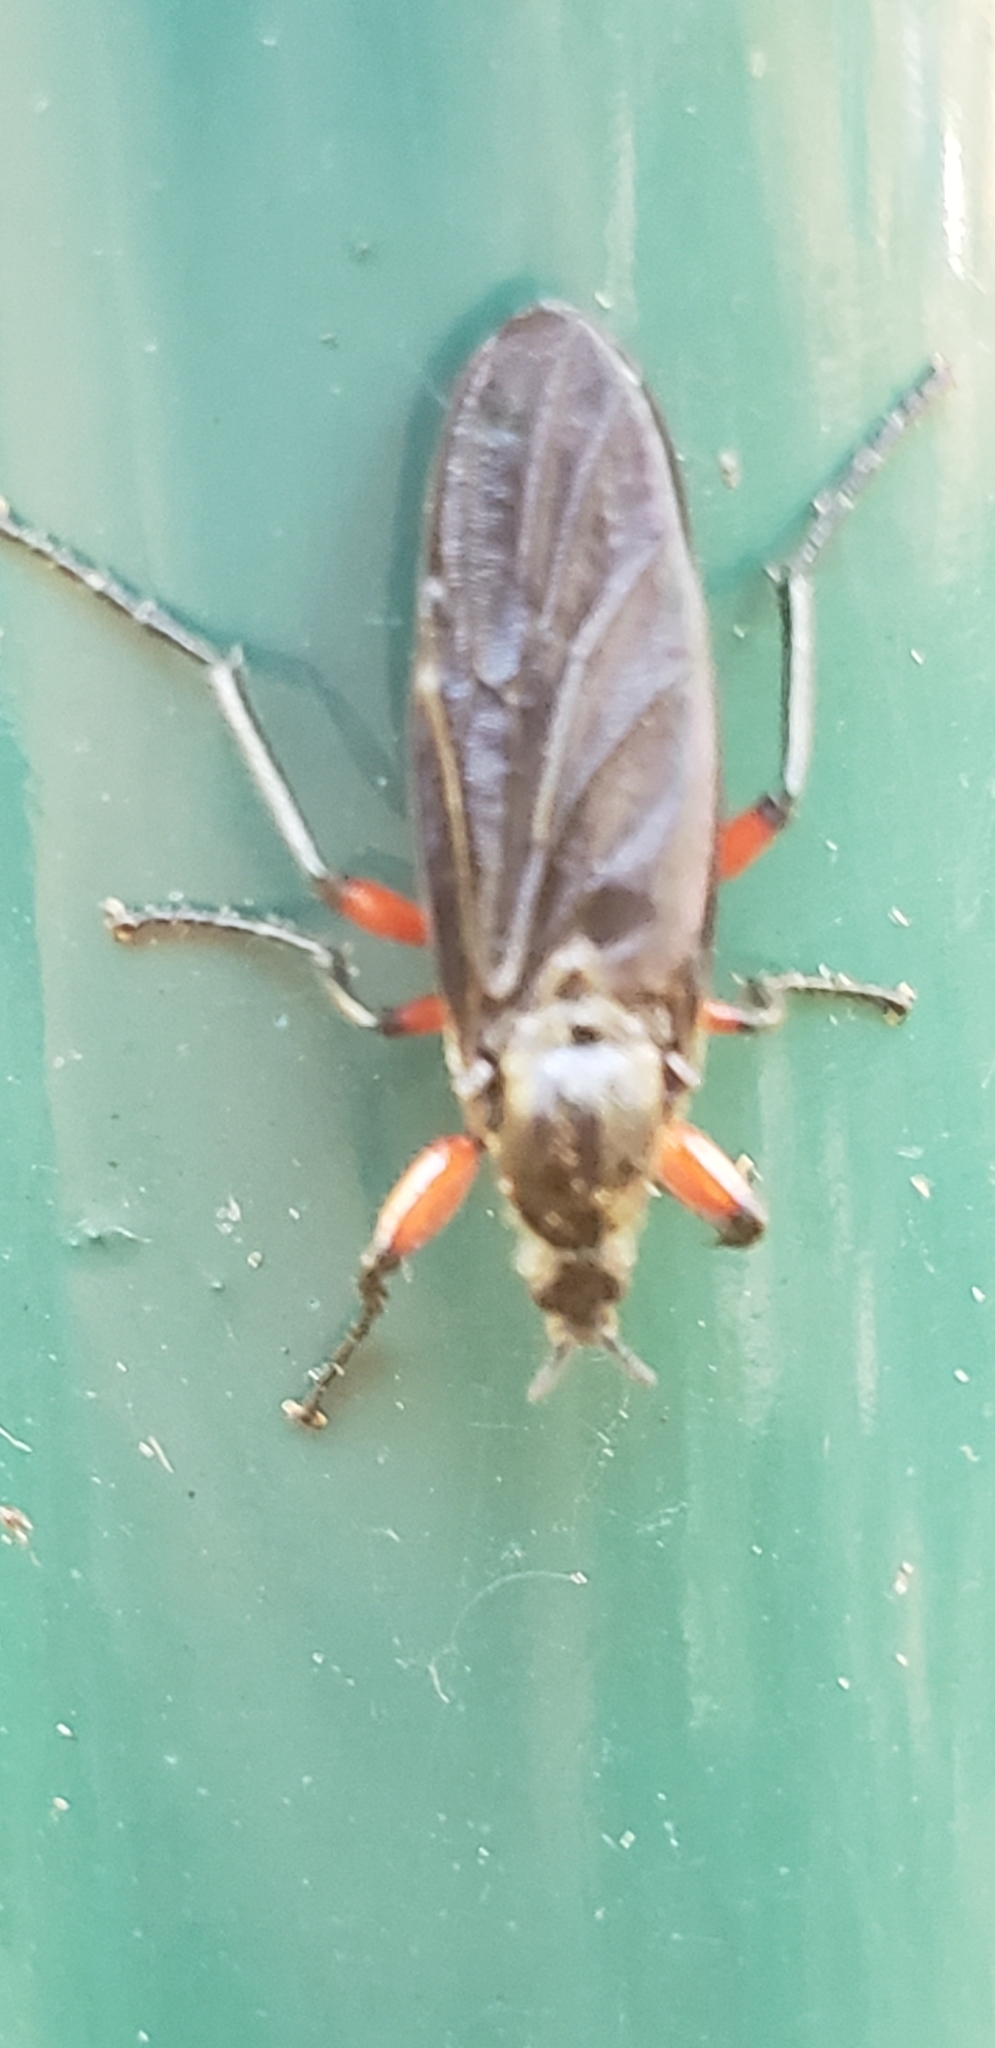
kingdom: Animalia
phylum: Arthropoda
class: Insecta
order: Diptera
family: Bibionidae
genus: Bibio
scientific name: Bibio femoratus
